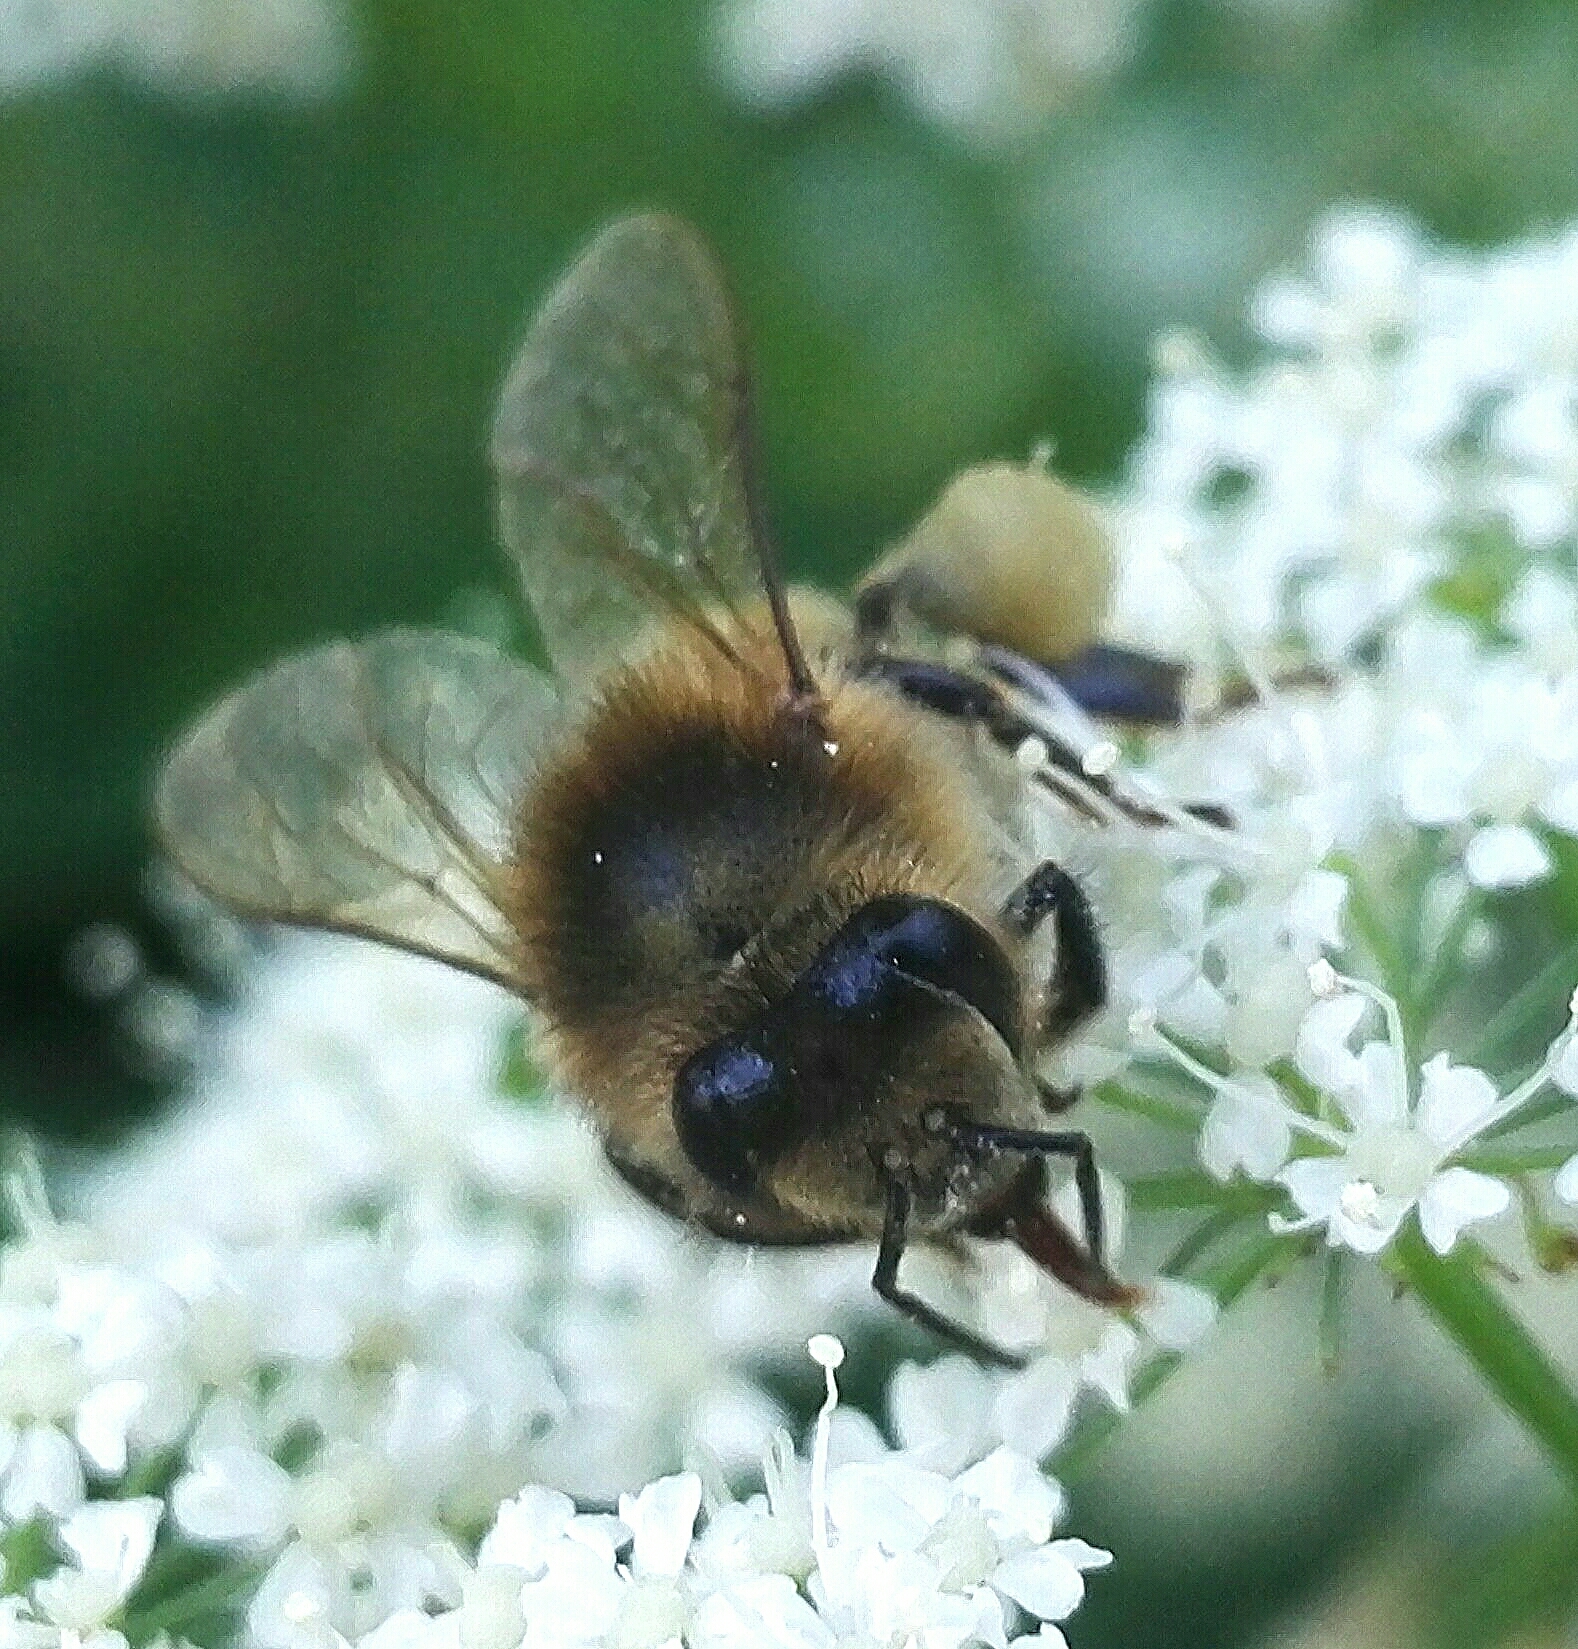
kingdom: Animalia
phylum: Arthropoda
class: Insecta
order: Hymenoptera
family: Apidae
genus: Apis
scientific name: Apis mellifera
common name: Honey bee
